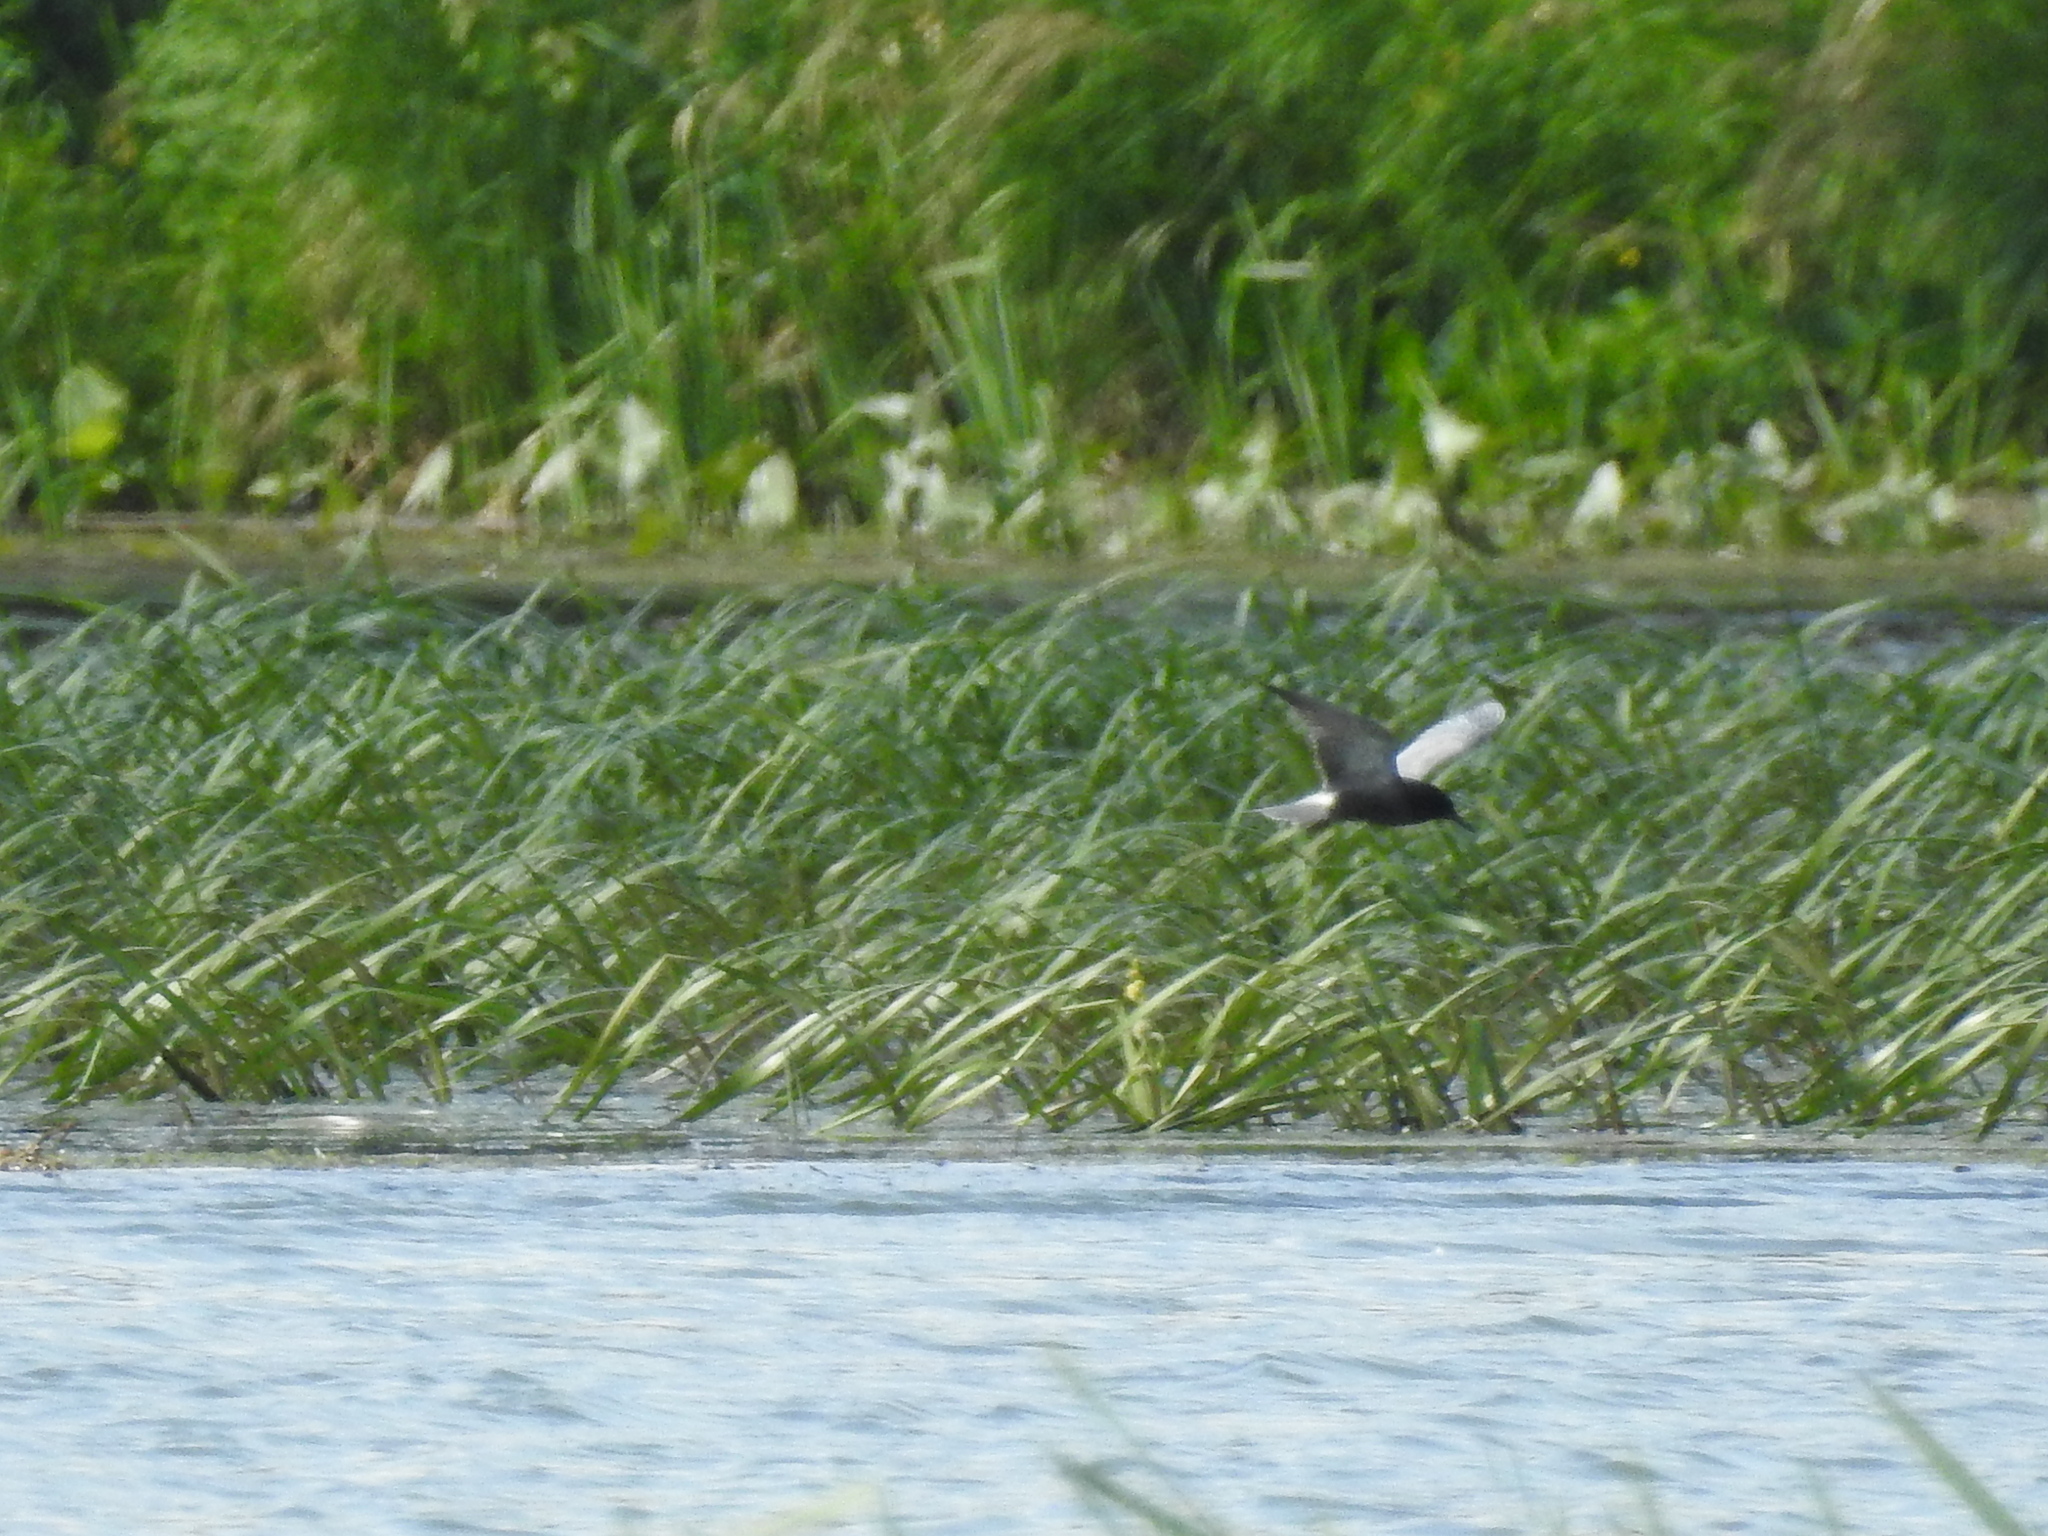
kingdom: Animalia
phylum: Chordata
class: Aves
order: Charadriiformes
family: Laridae
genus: Chlidonias
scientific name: Chlidonias niger
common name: Black tern
